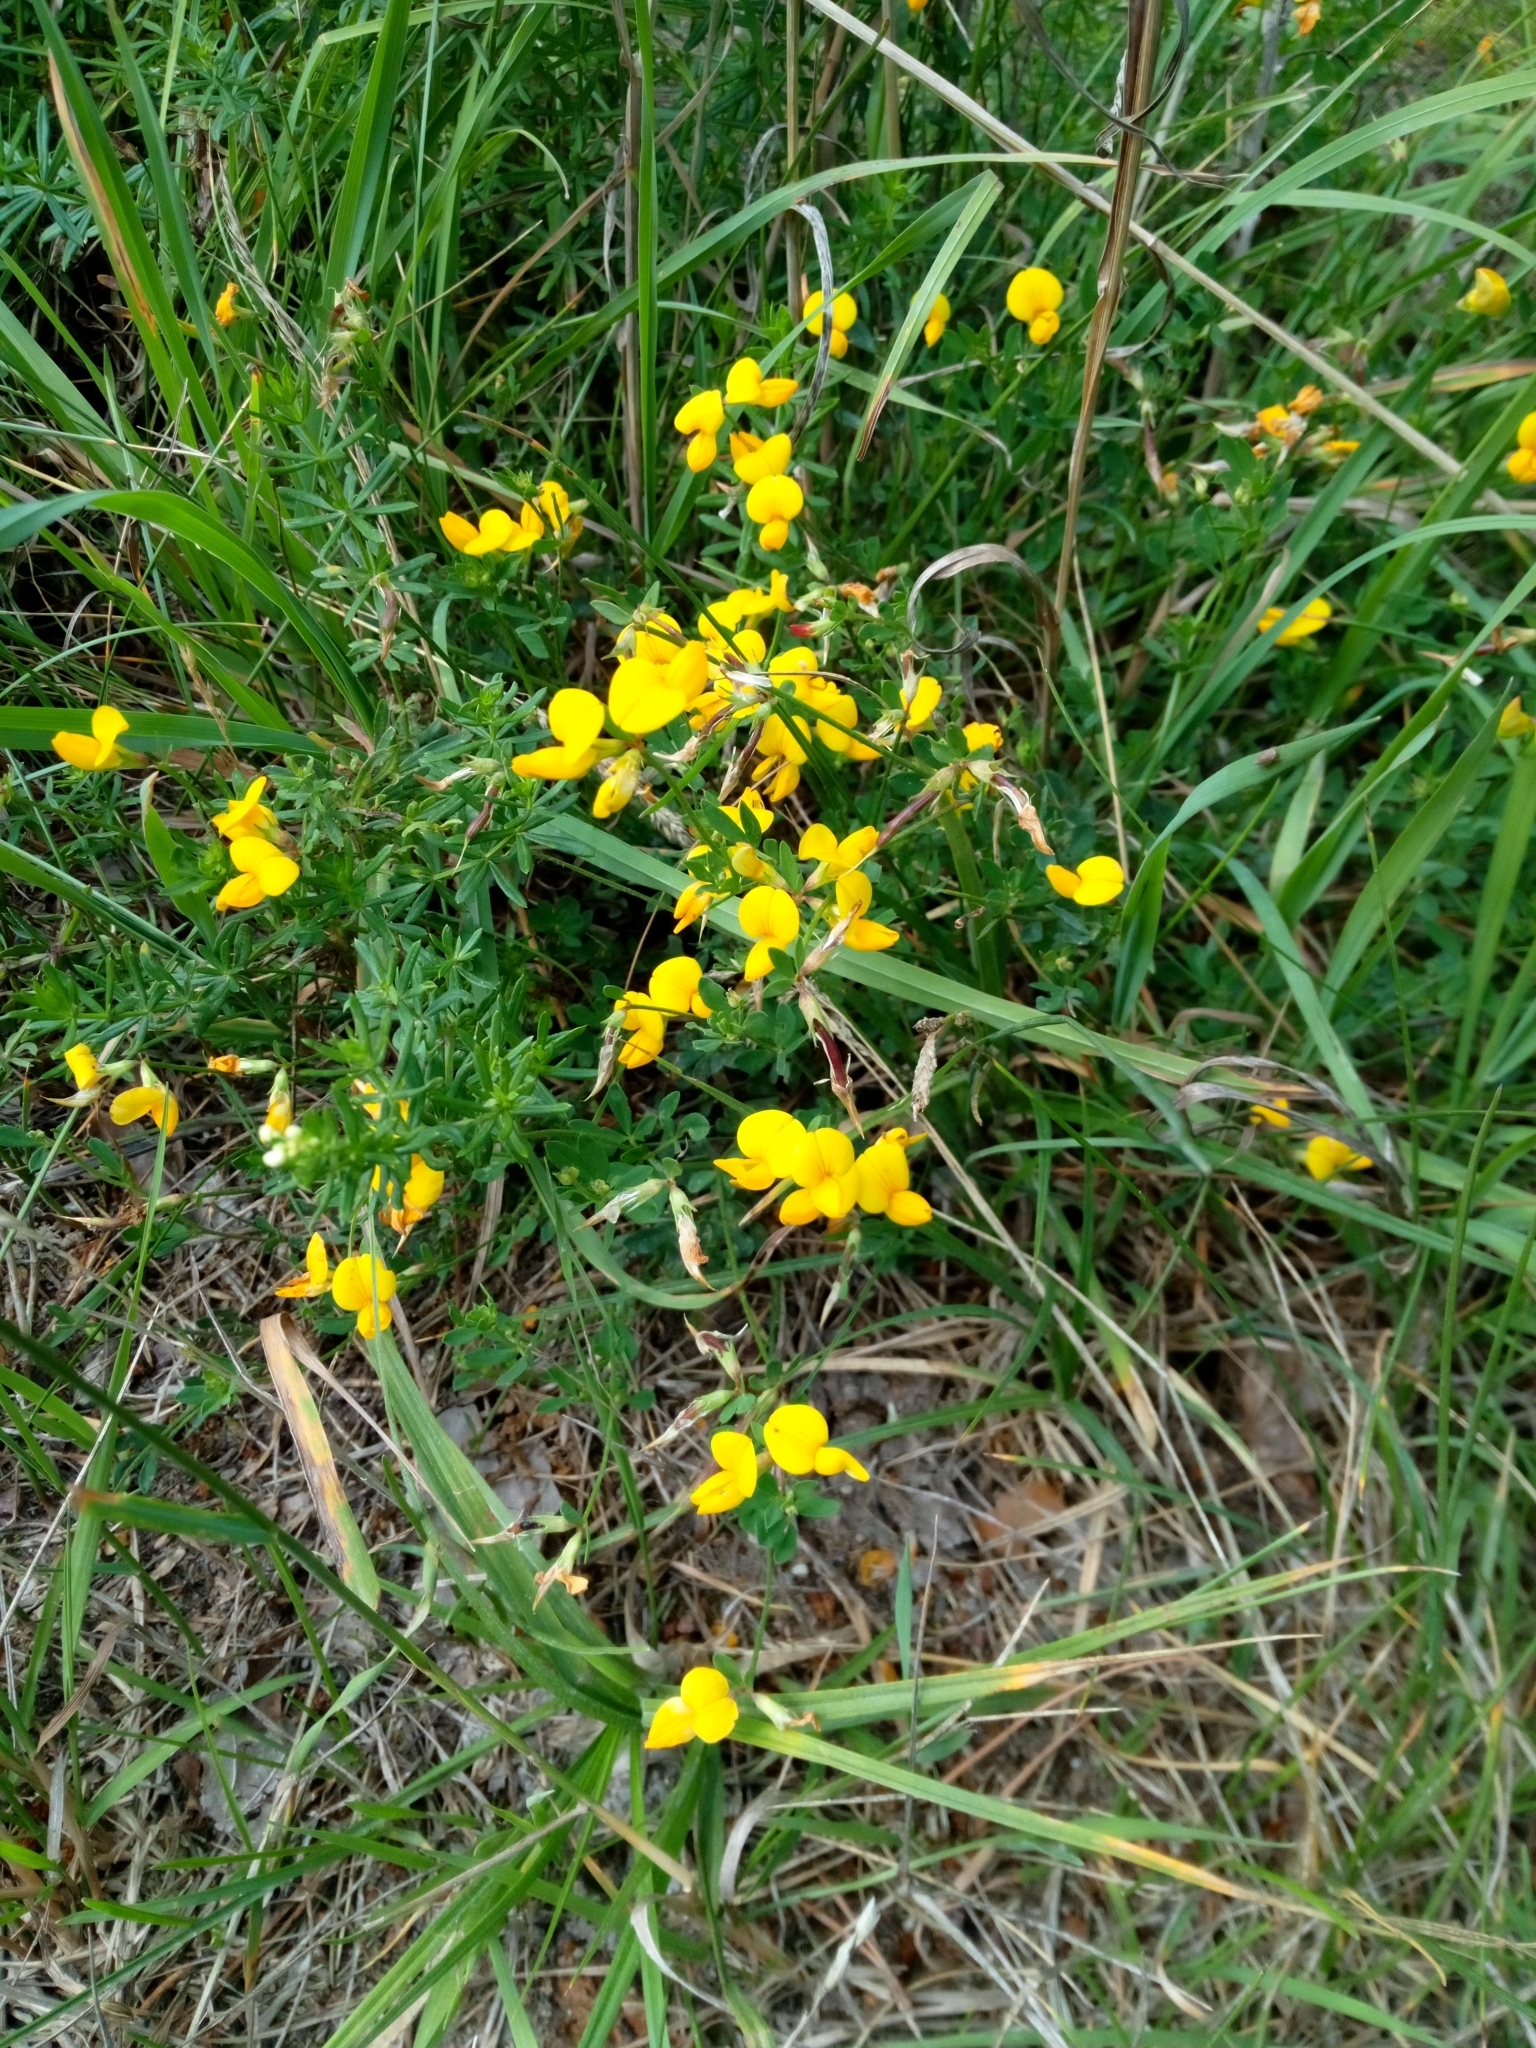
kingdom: Plantae
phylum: Tracheophyta
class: Magnoliopsida
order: Fabales
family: Fabaceae
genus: Lotus
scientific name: Lotus corniculatus
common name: Common bird's-foot-trefoil
